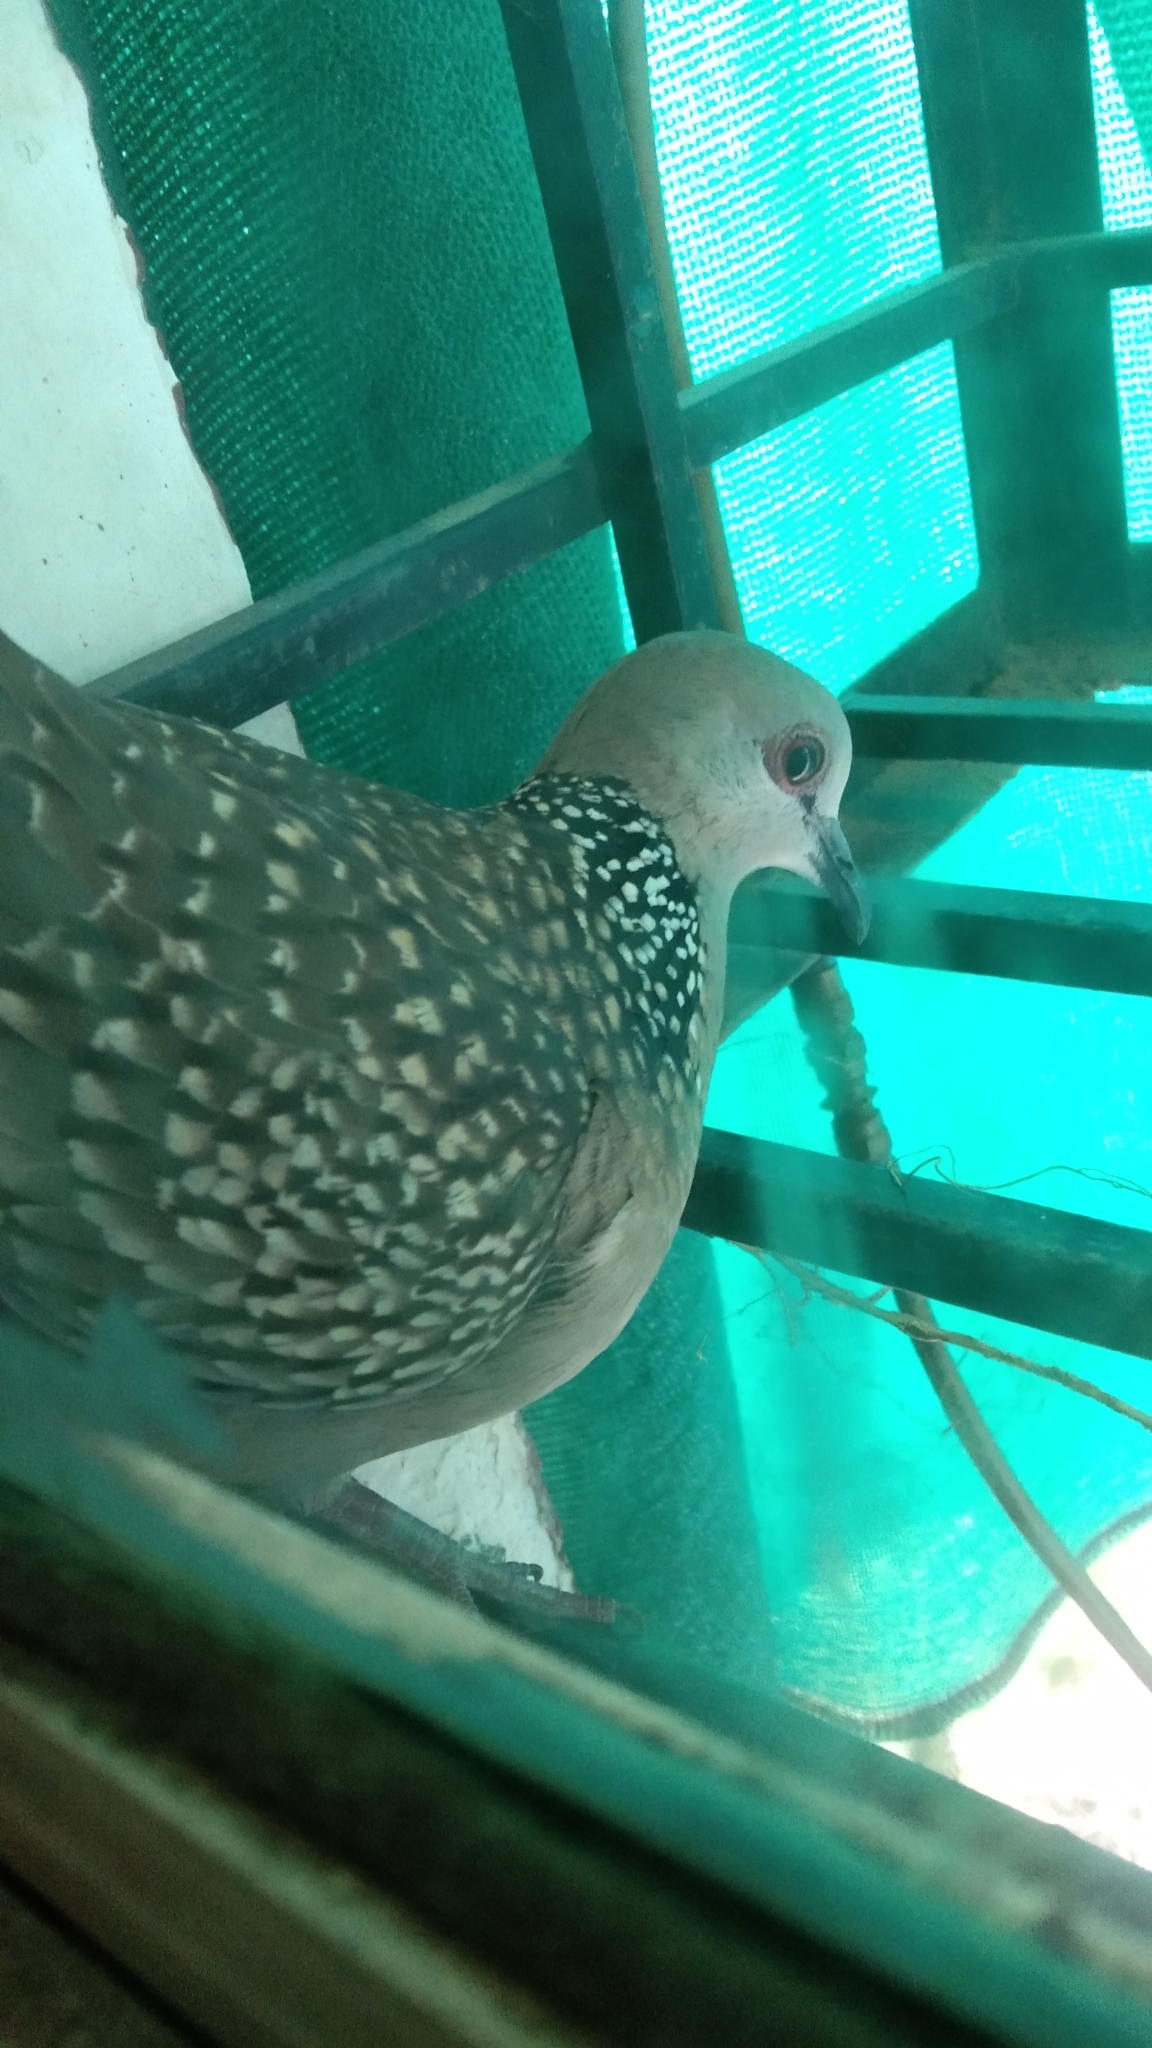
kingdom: Animalia
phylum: Chordata
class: Aves
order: Columbiformes
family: Columbidae
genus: Spilopelia
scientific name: Spilopelia chinensis
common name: Spotted dove
